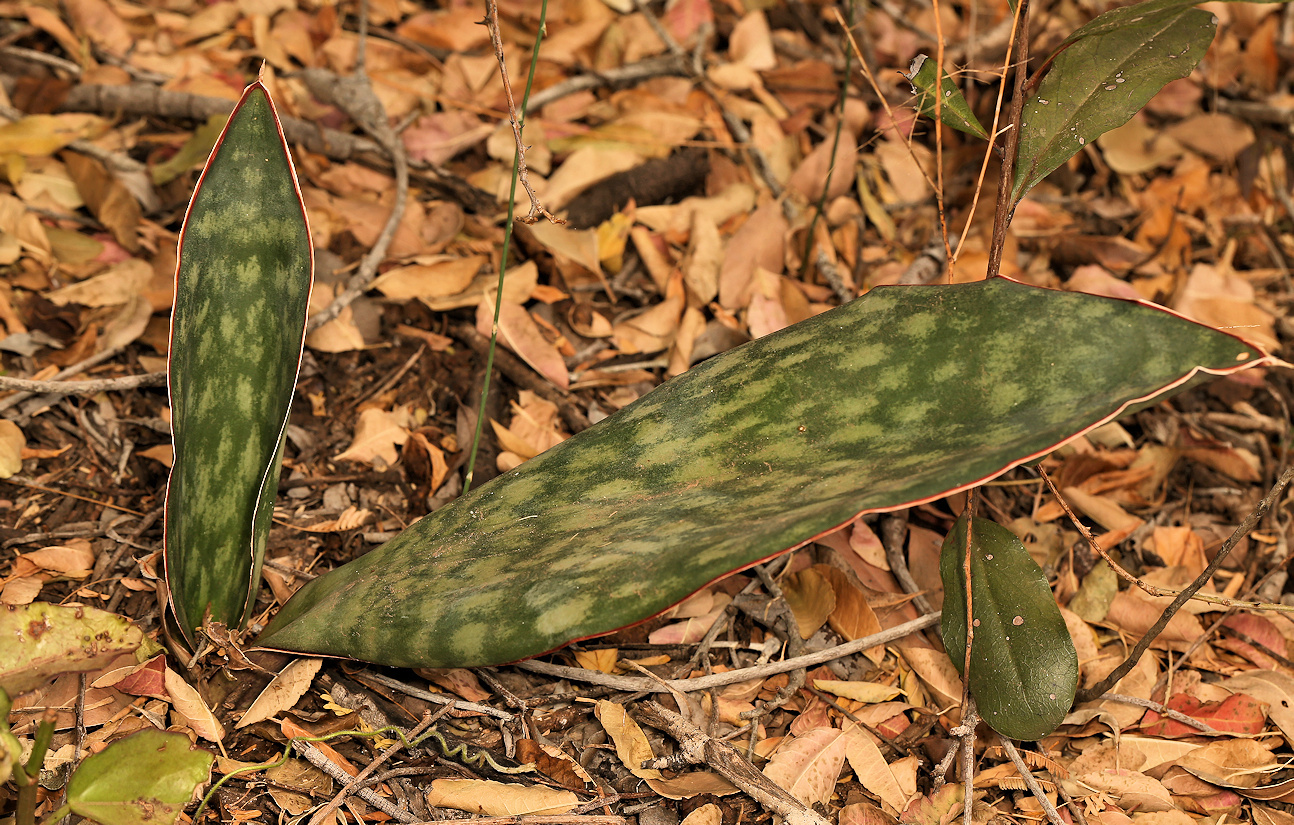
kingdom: Plantae
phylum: Tracheophyta
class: Liliopsida
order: Asparagales
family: Asparagaceae
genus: Dracaena
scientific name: Dracaena hyacinthoides
